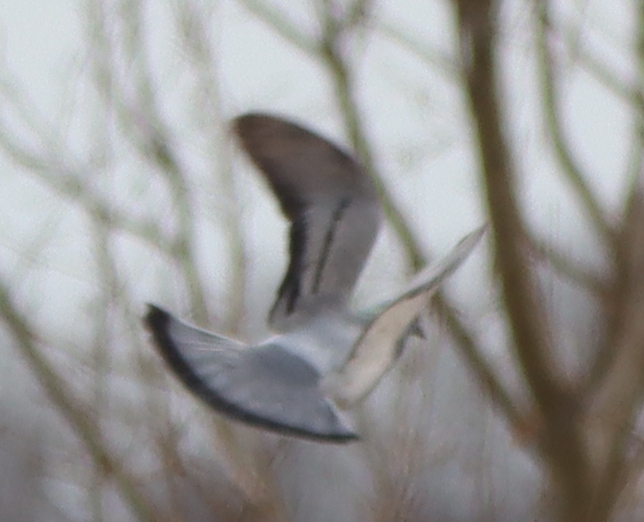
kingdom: Animalia
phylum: Chordata
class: Aves
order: Columbiformes
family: Columbidae
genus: Columba
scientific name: Columba livia
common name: Rock pigeon
